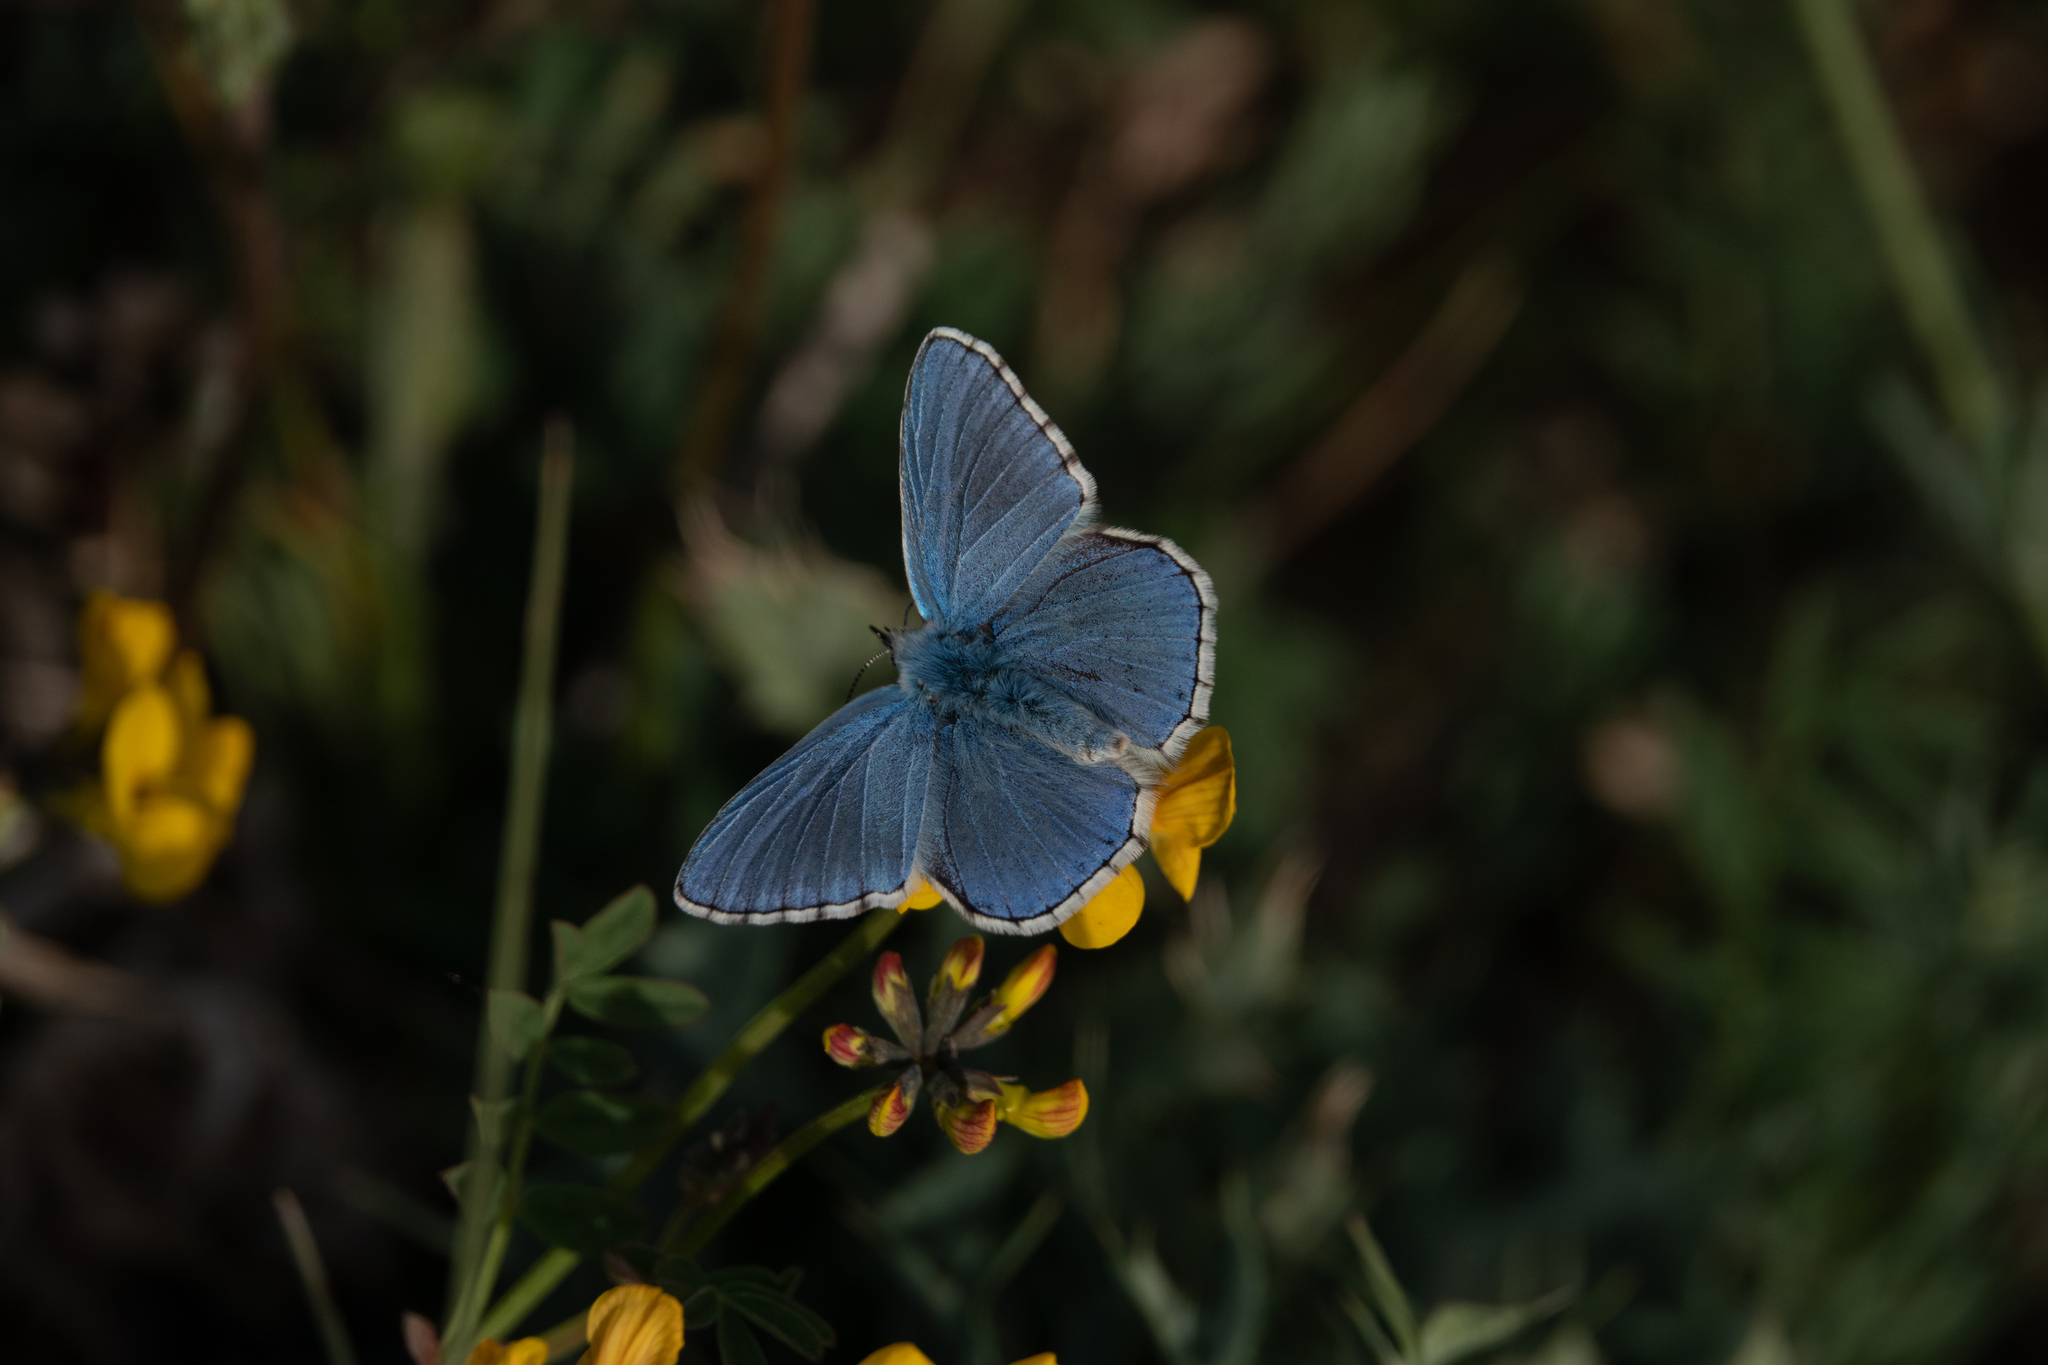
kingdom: Animalia
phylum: Arthropoda
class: Insecta
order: Lepidoptera
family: Lycaenidae
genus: Lysandra
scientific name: Lysandra bellargus
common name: Adonis blue
